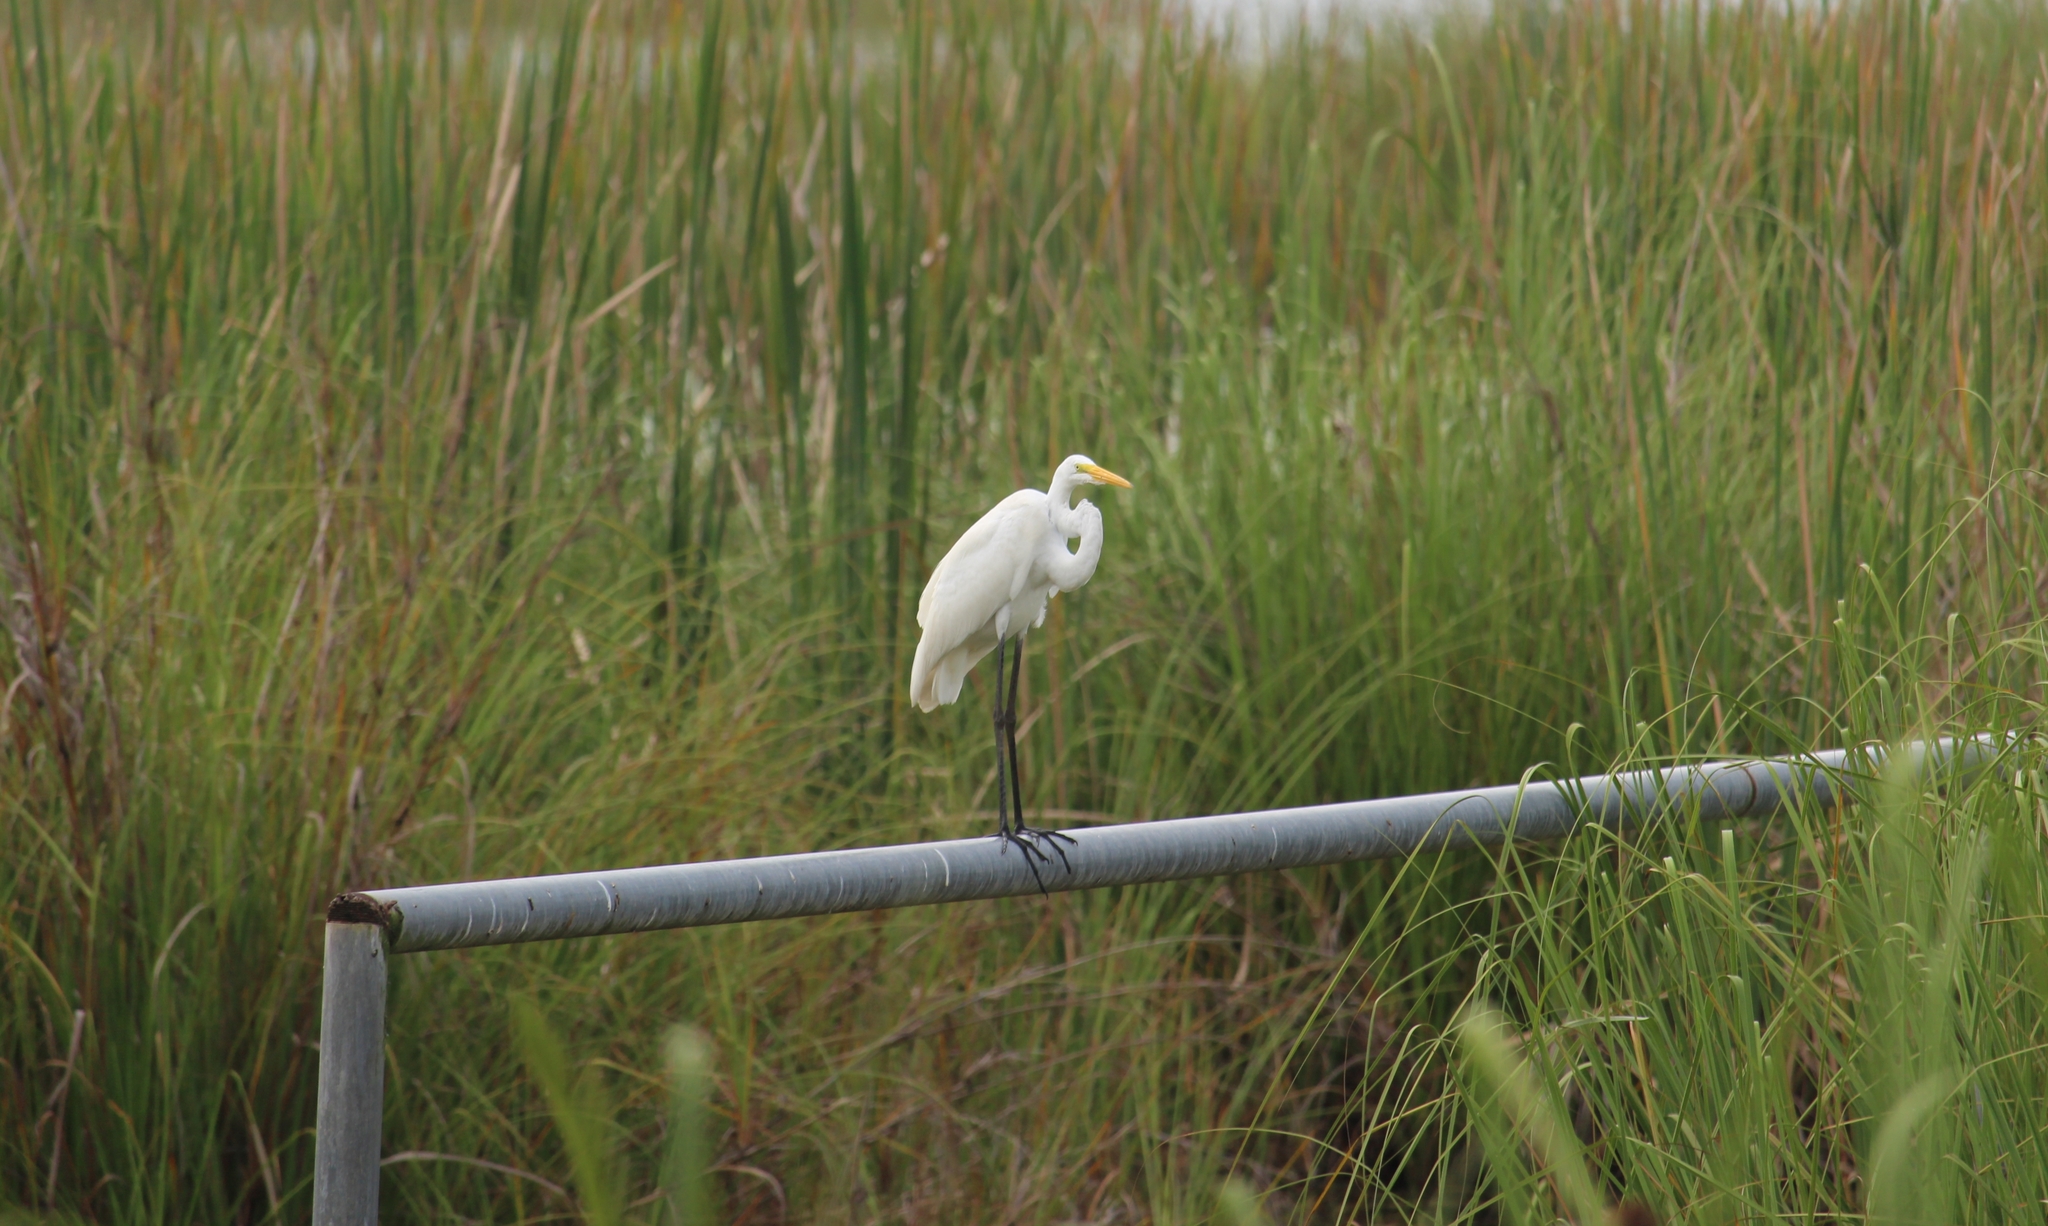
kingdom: Animalia
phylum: Chordata
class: Aves
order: Pelecaniformes
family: Ardeidae
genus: Ardea
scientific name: Ardea alba
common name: Great egret
